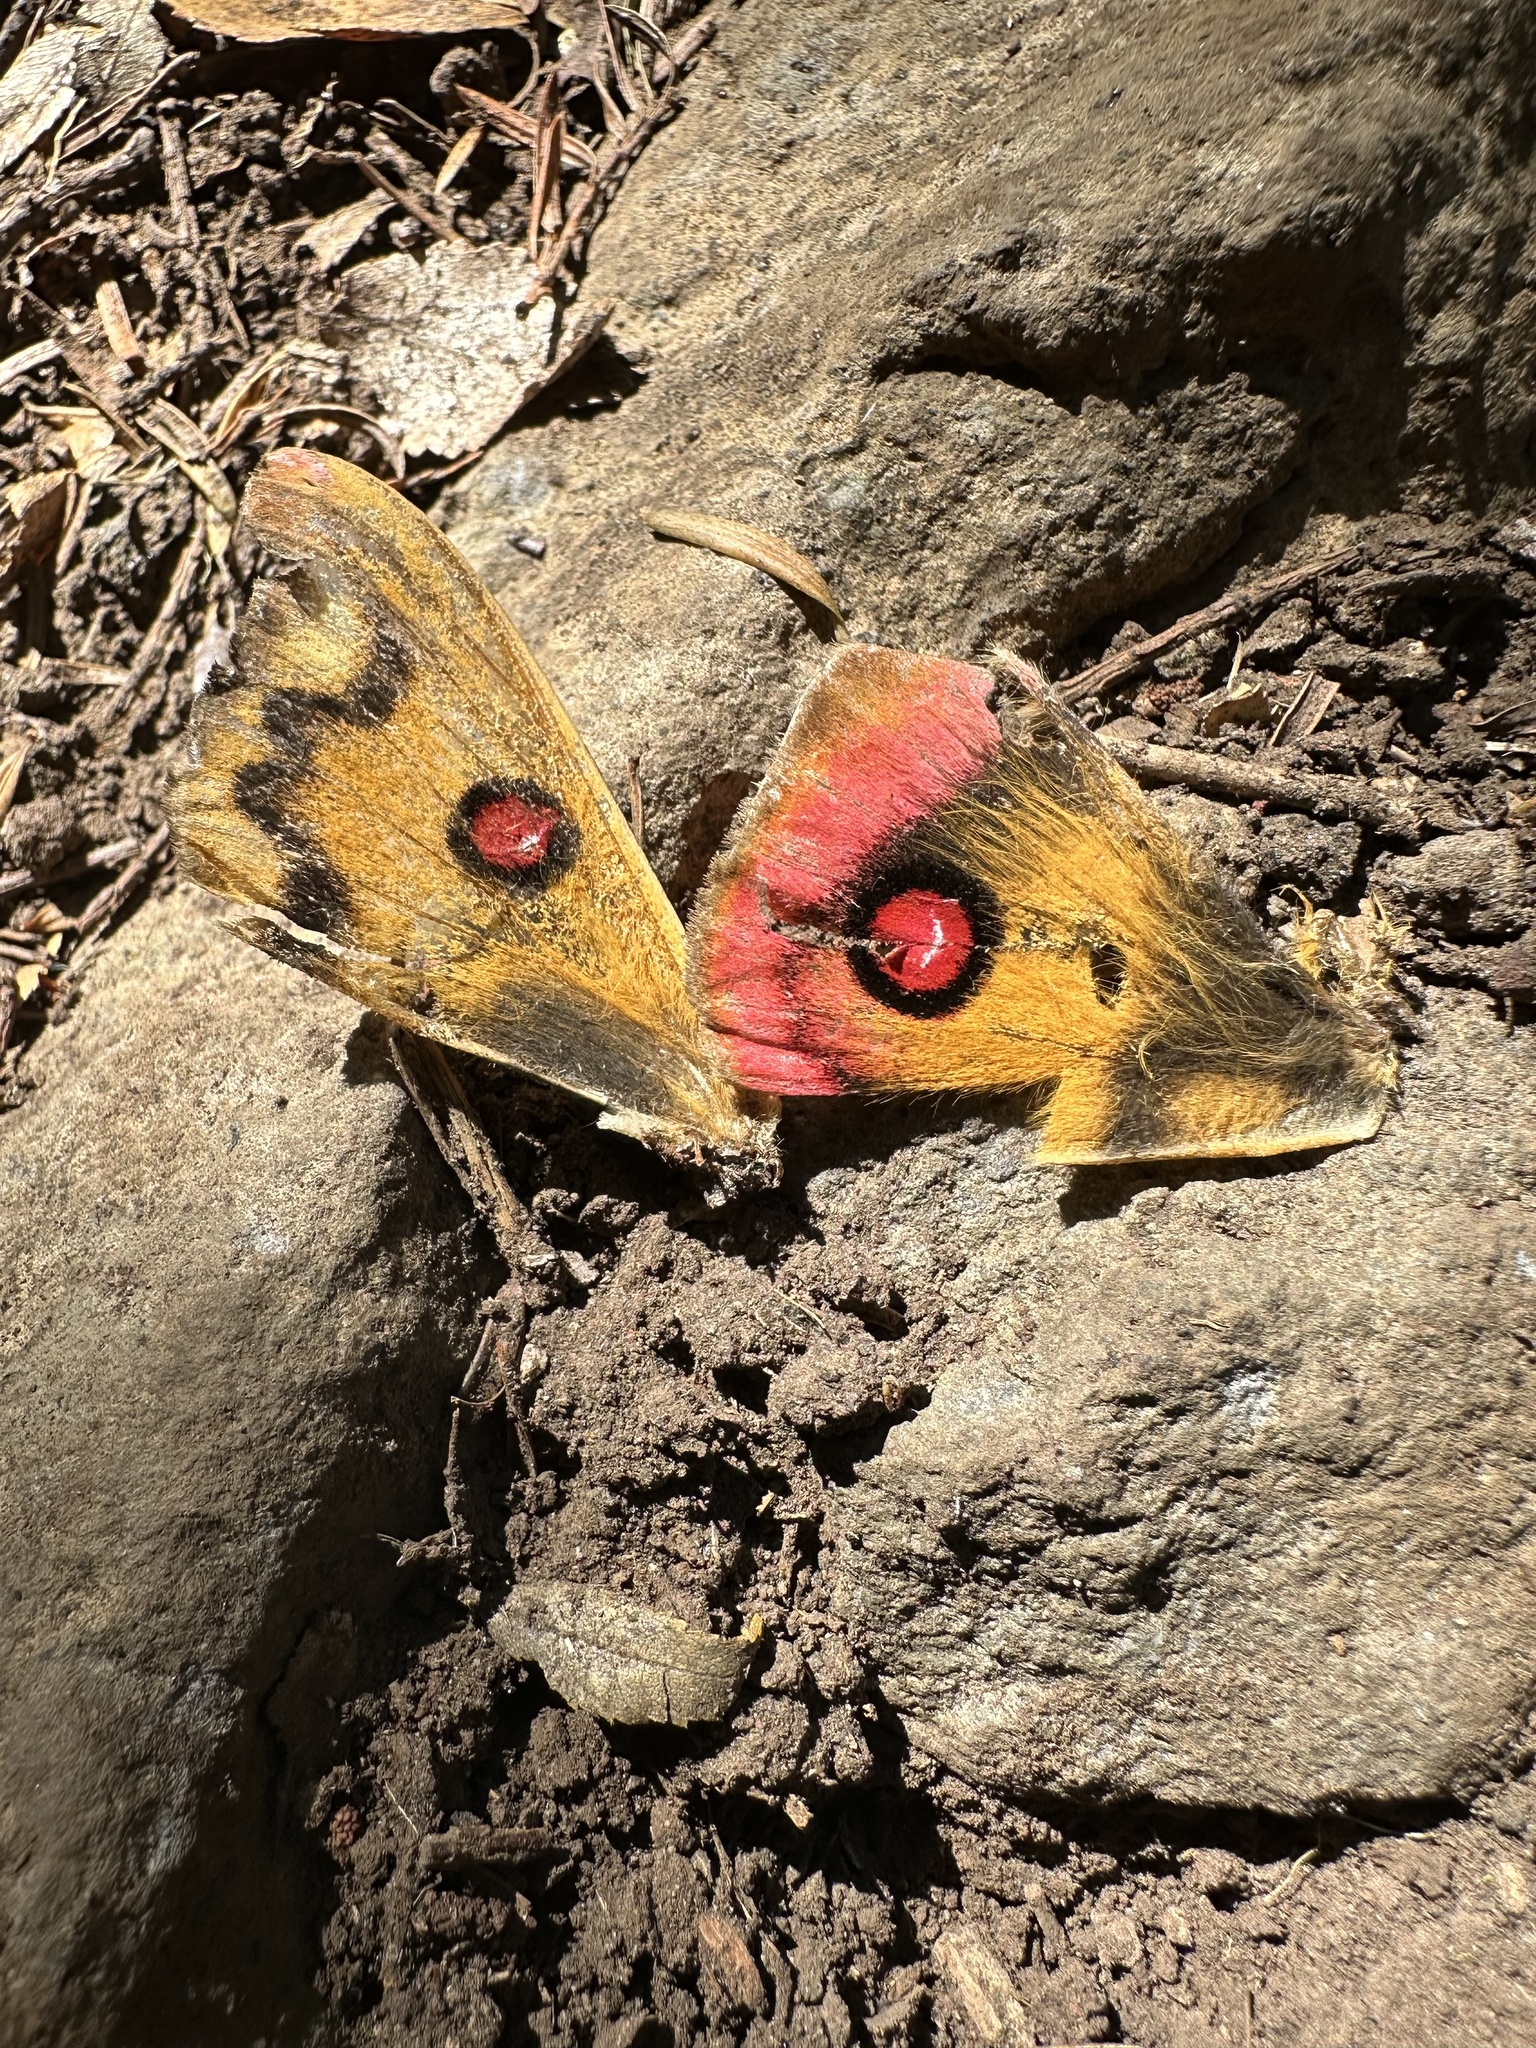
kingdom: Animalia
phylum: Arthropoda
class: Insecta
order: Lepidoptera
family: Saturniidae
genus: Polythysana
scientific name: Polythysana rubrescens
